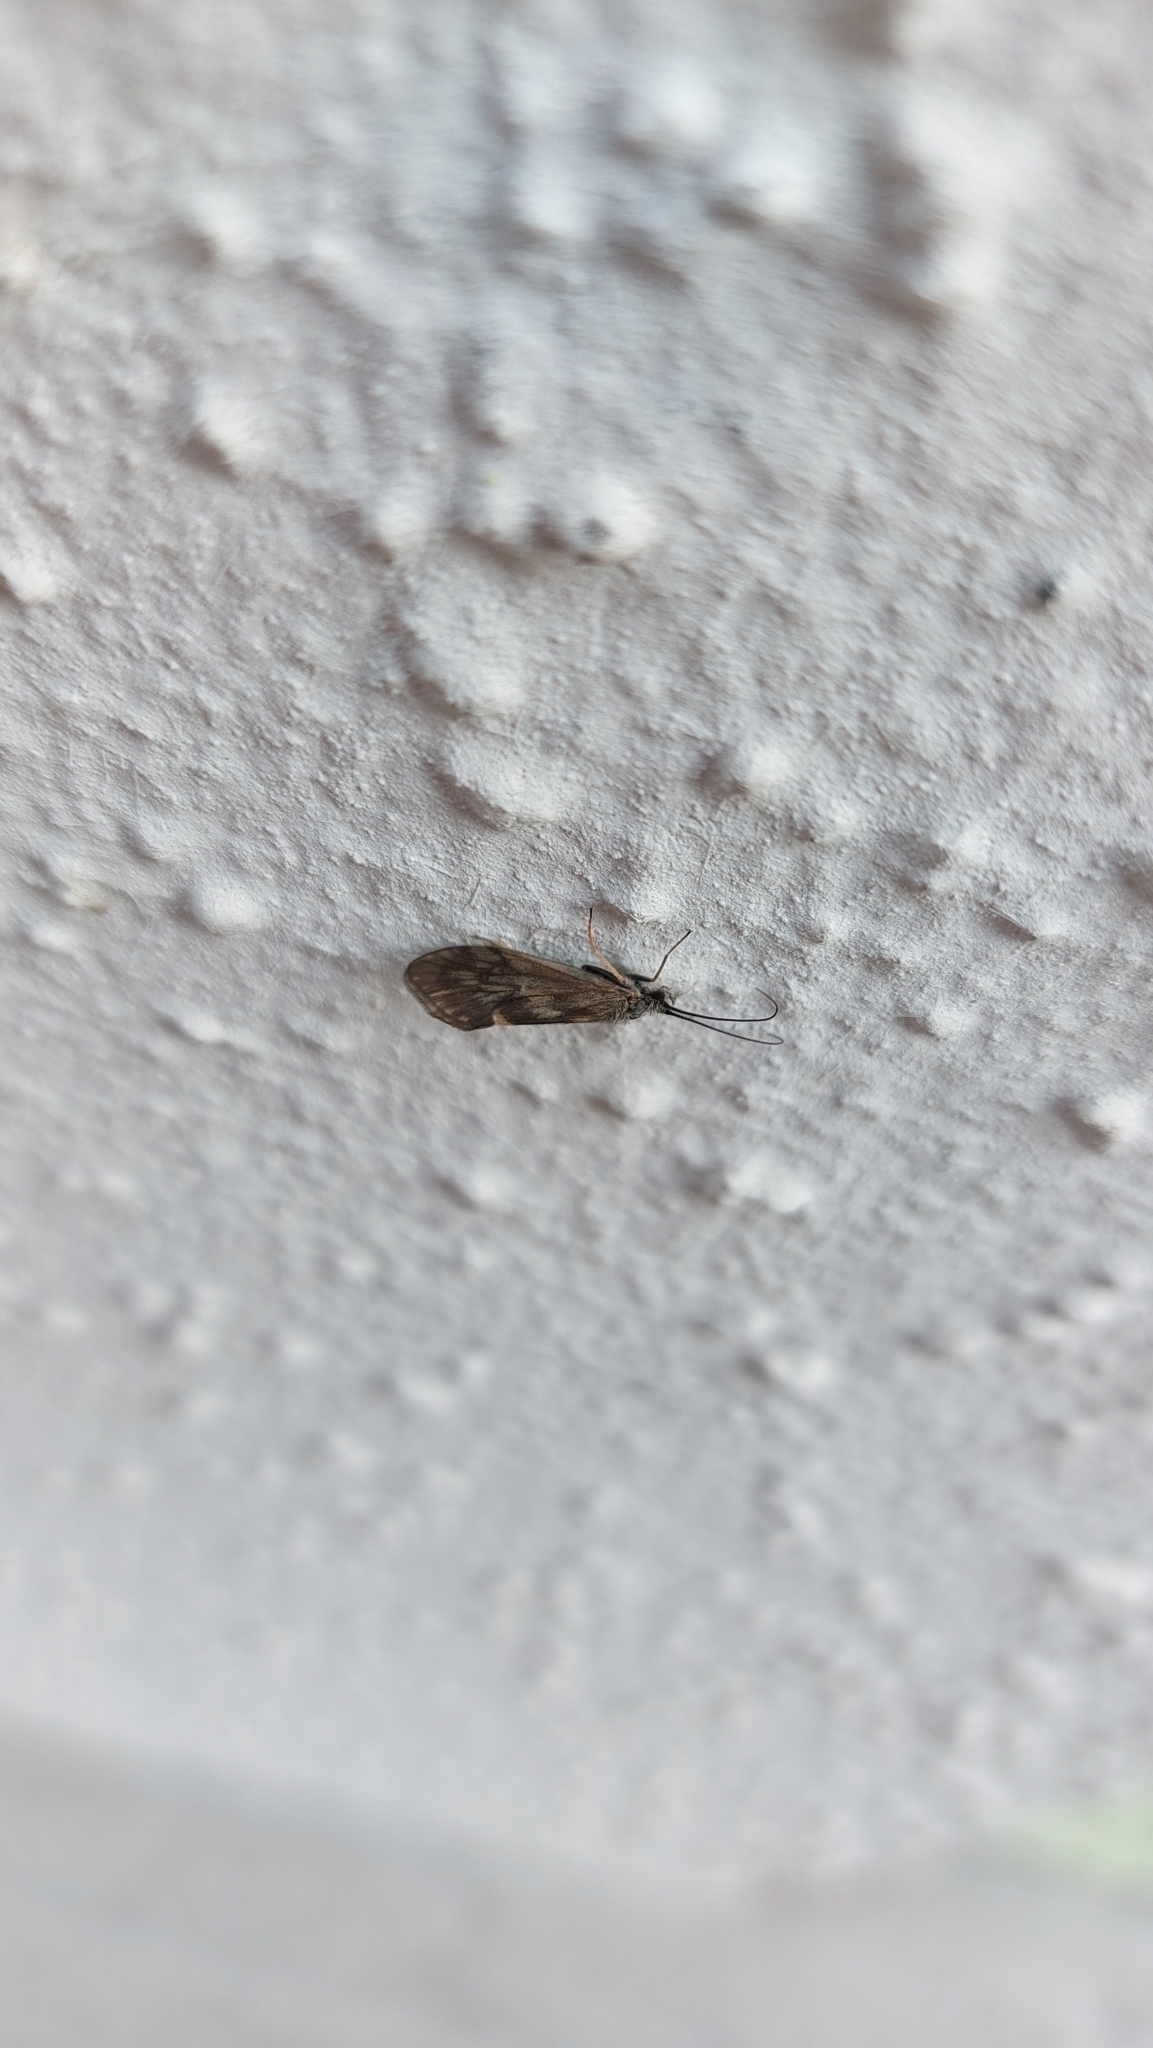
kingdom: Animalia
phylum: Arthropoda
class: Insecta
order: Trichoptera
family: Brachycentridae
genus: Brachycentrus
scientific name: Brachycentrus subnubilis
